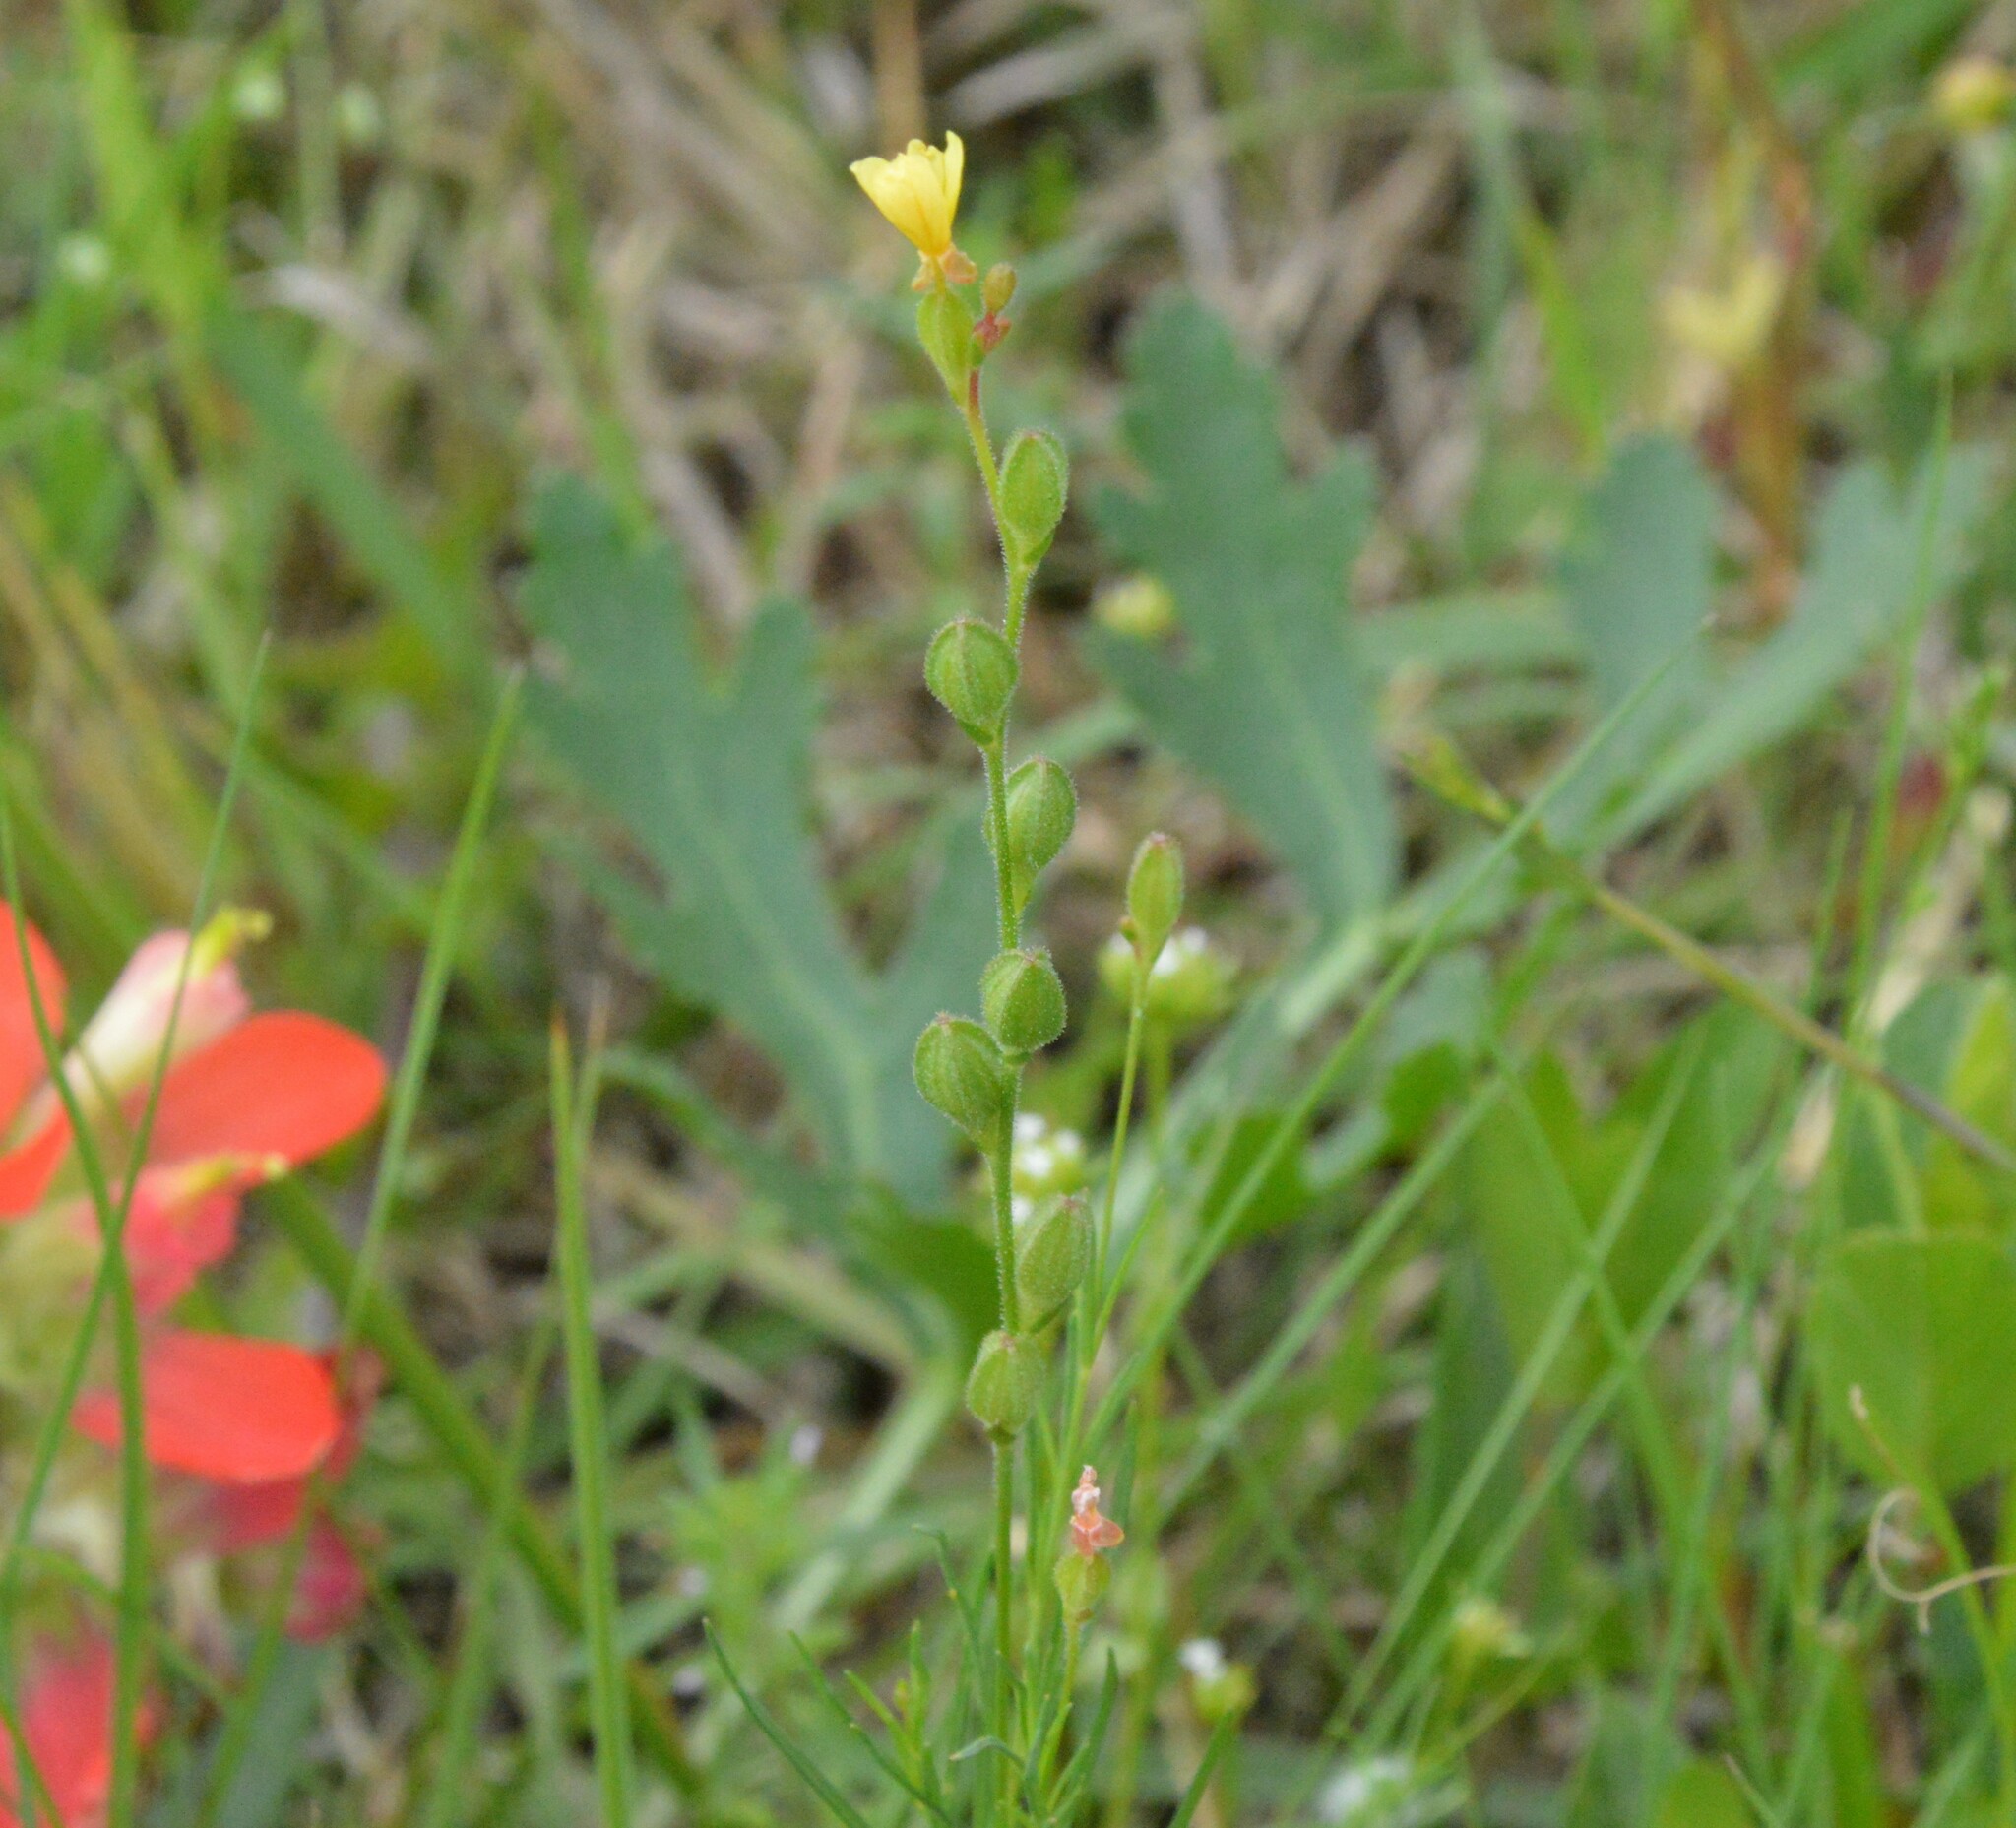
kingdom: Plantae
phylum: Tracheophyta
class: Magnoliopsida
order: Myrtales
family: Onagraceae
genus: Oenothera
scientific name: Oenothera linifolia
